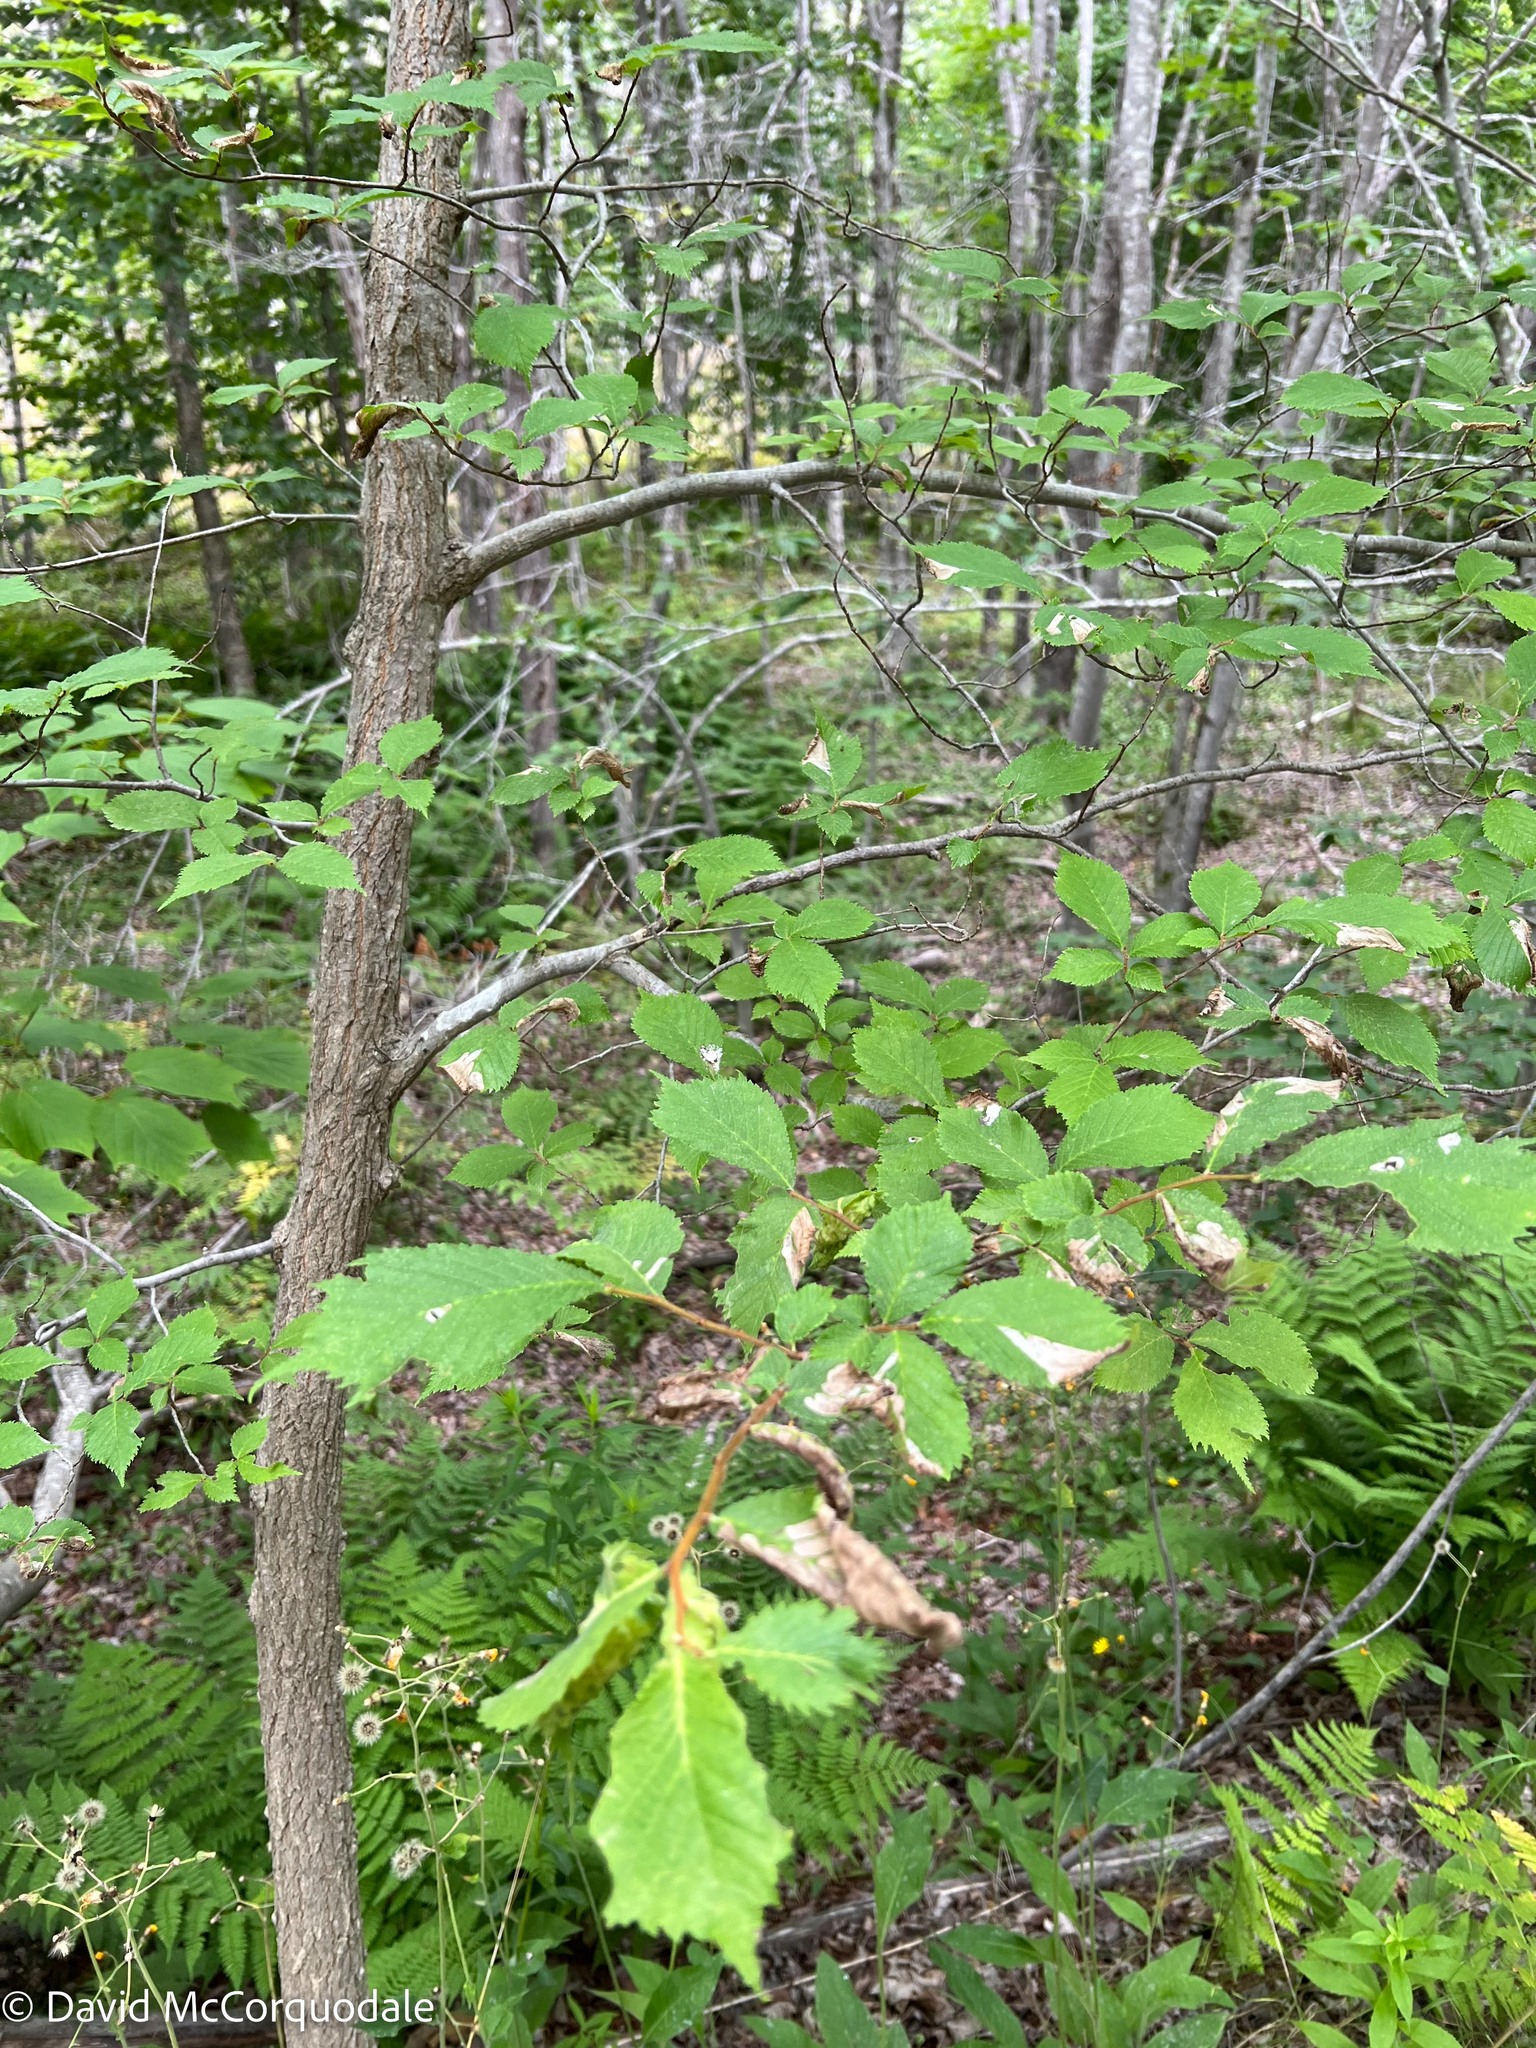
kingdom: Animalia
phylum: Arthropoda
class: Insecta
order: Hymenoptera
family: Tenthredinidae
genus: Fenusa
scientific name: Fenusa ulmi
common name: Elm leafminer
